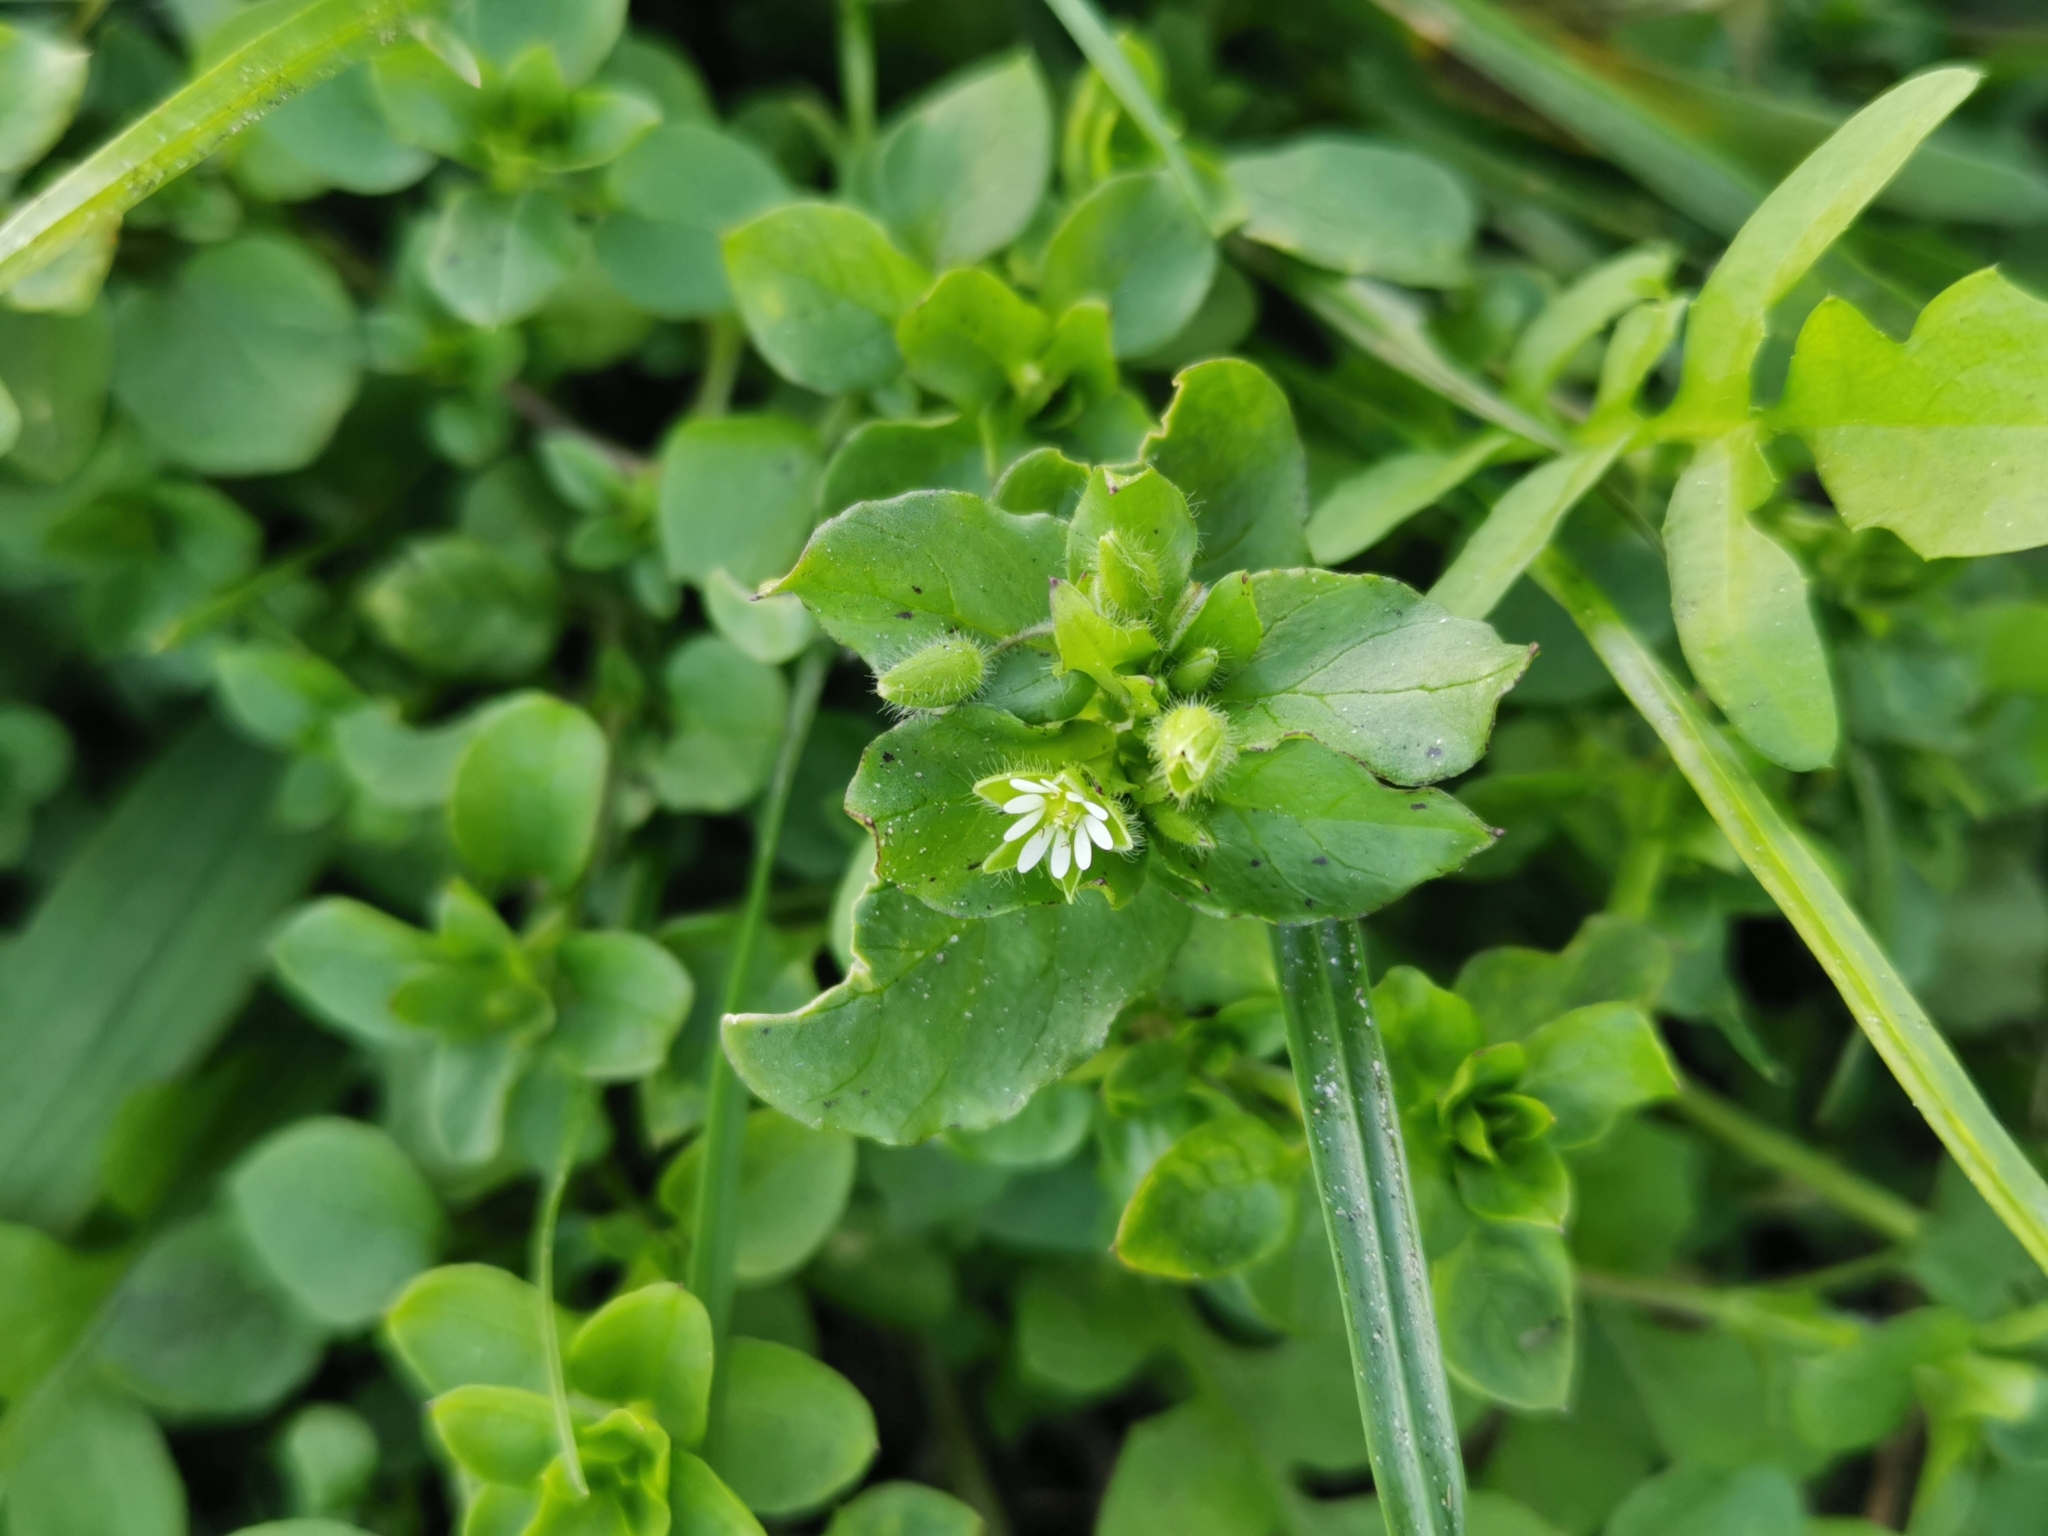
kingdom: Plantae
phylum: Tracheophyta
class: Magnoliopsida
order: Caryophyllales
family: Caryophyllaceae
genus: Stellaria
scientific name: Stellaria media
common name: Common chickweed
